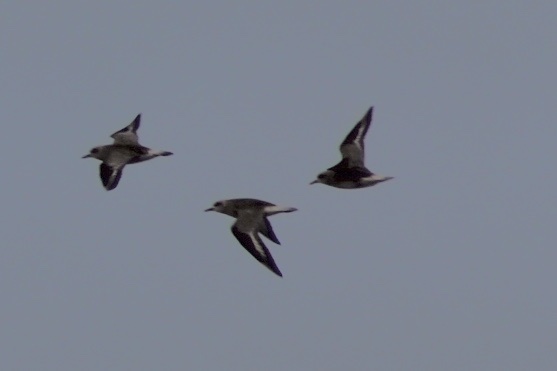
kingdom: Animalia
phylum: Chordata
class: Aves
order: Charadriiformes
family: Charadriidae
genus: Pluvialis
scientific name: Pluvialis squatarola
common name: Grey plover
